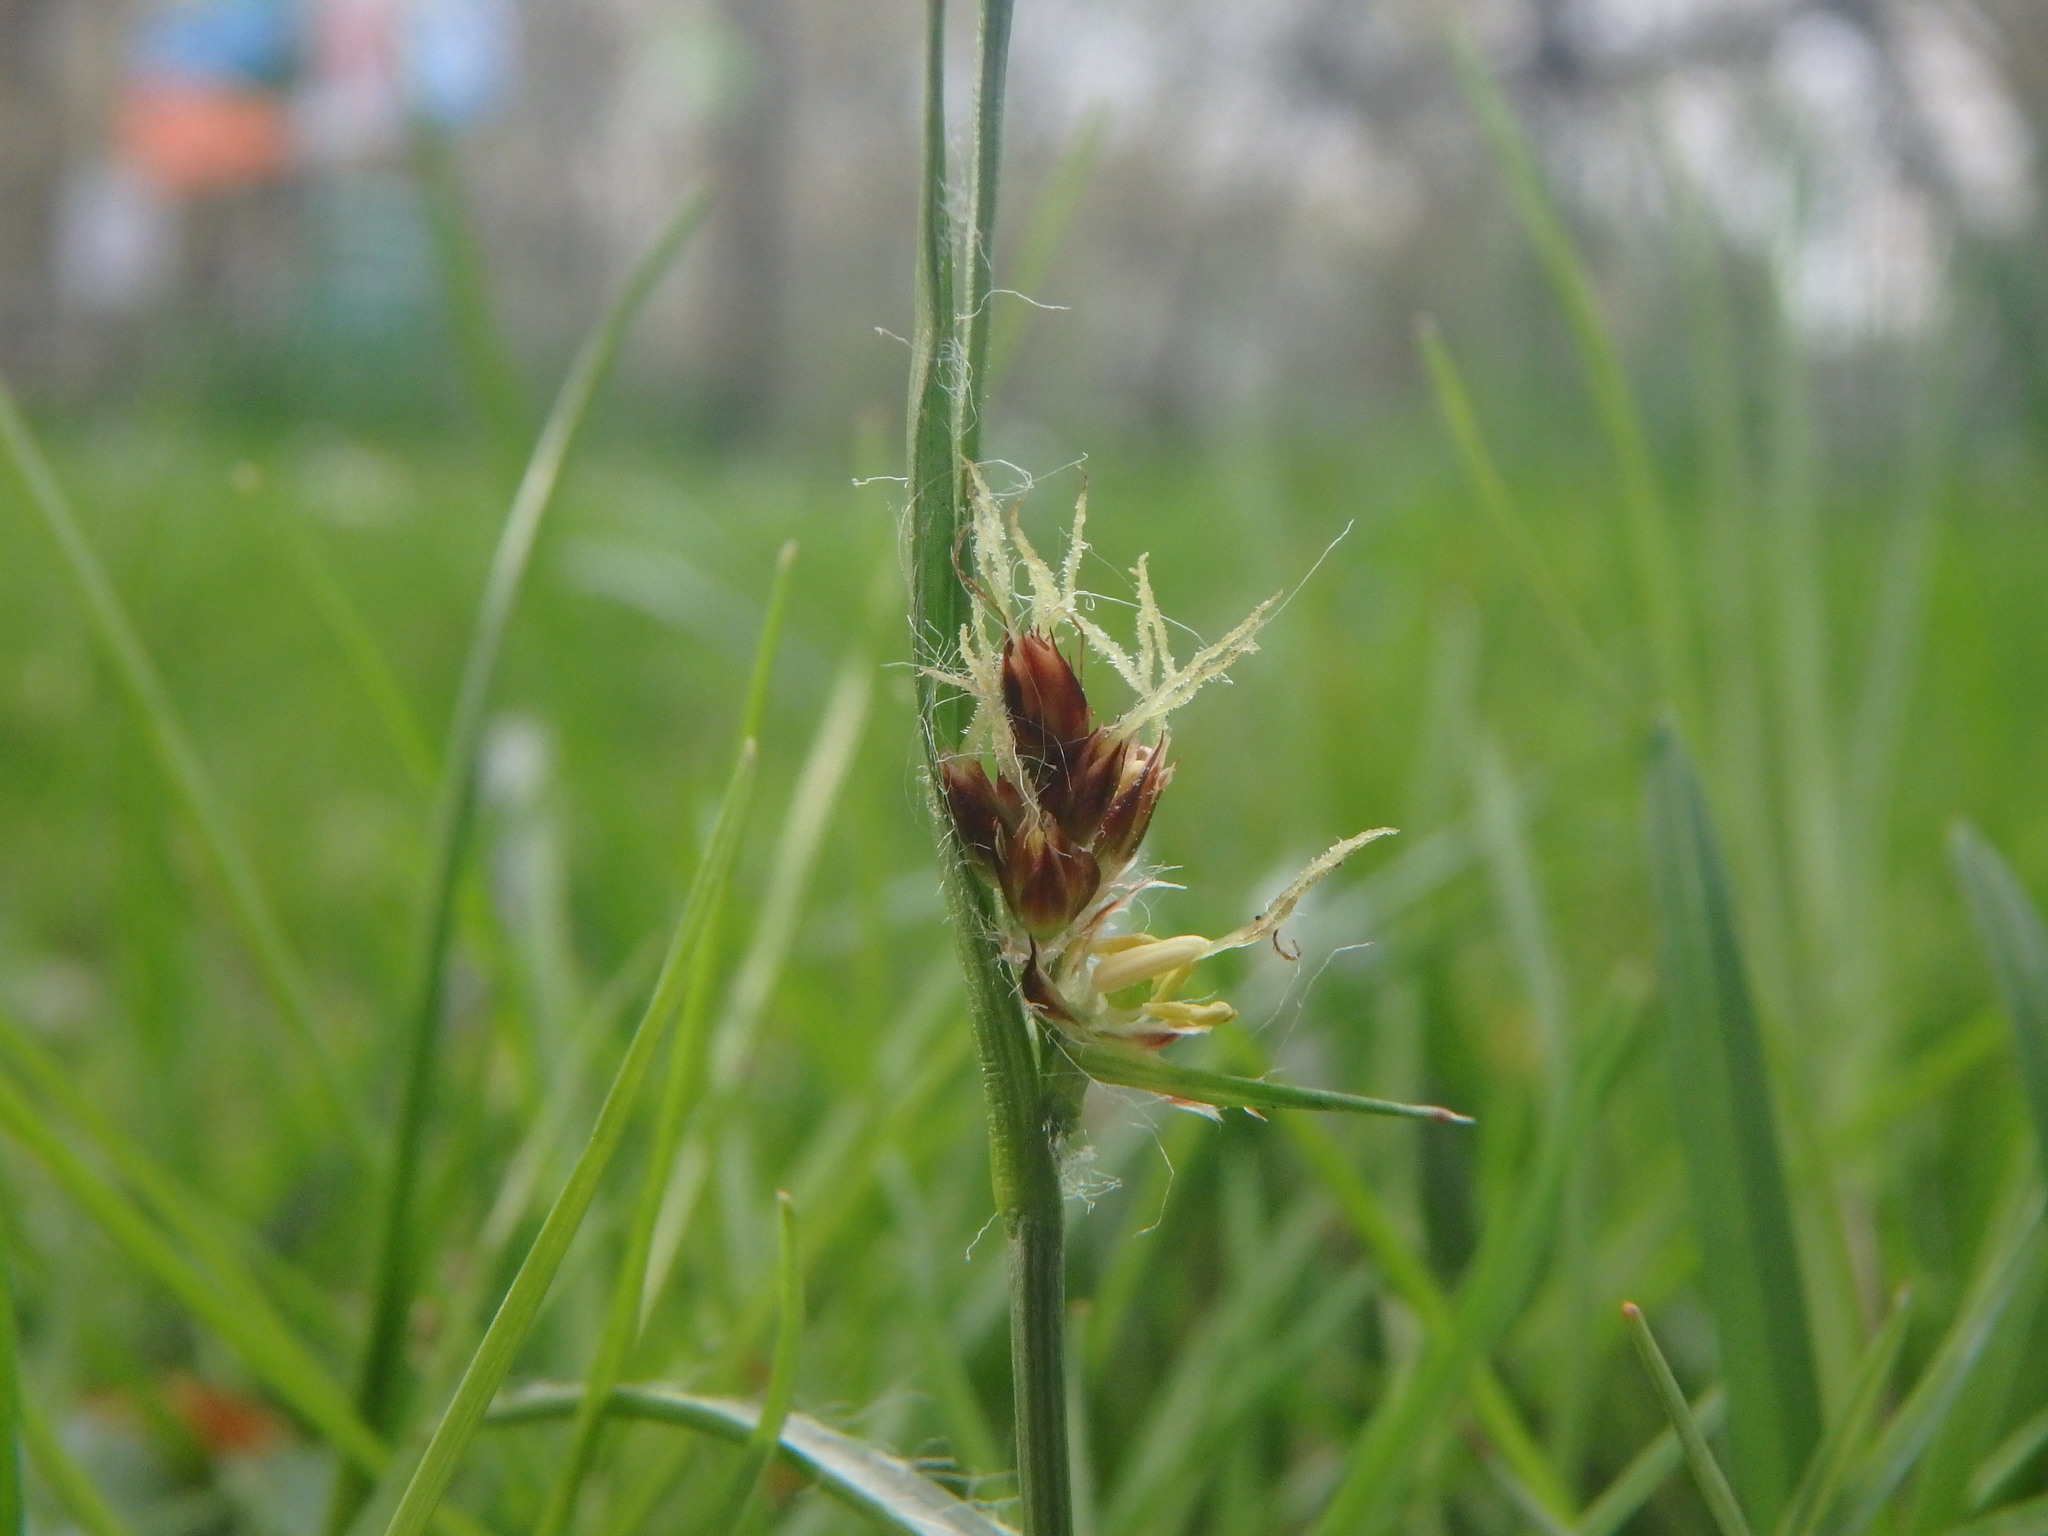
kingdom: Plantae
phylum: Tracheophyta
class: Liliopsida
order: Poales
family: Juncaceae
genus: Luzula
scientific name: Luzula campestris
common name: Field wood-rush
